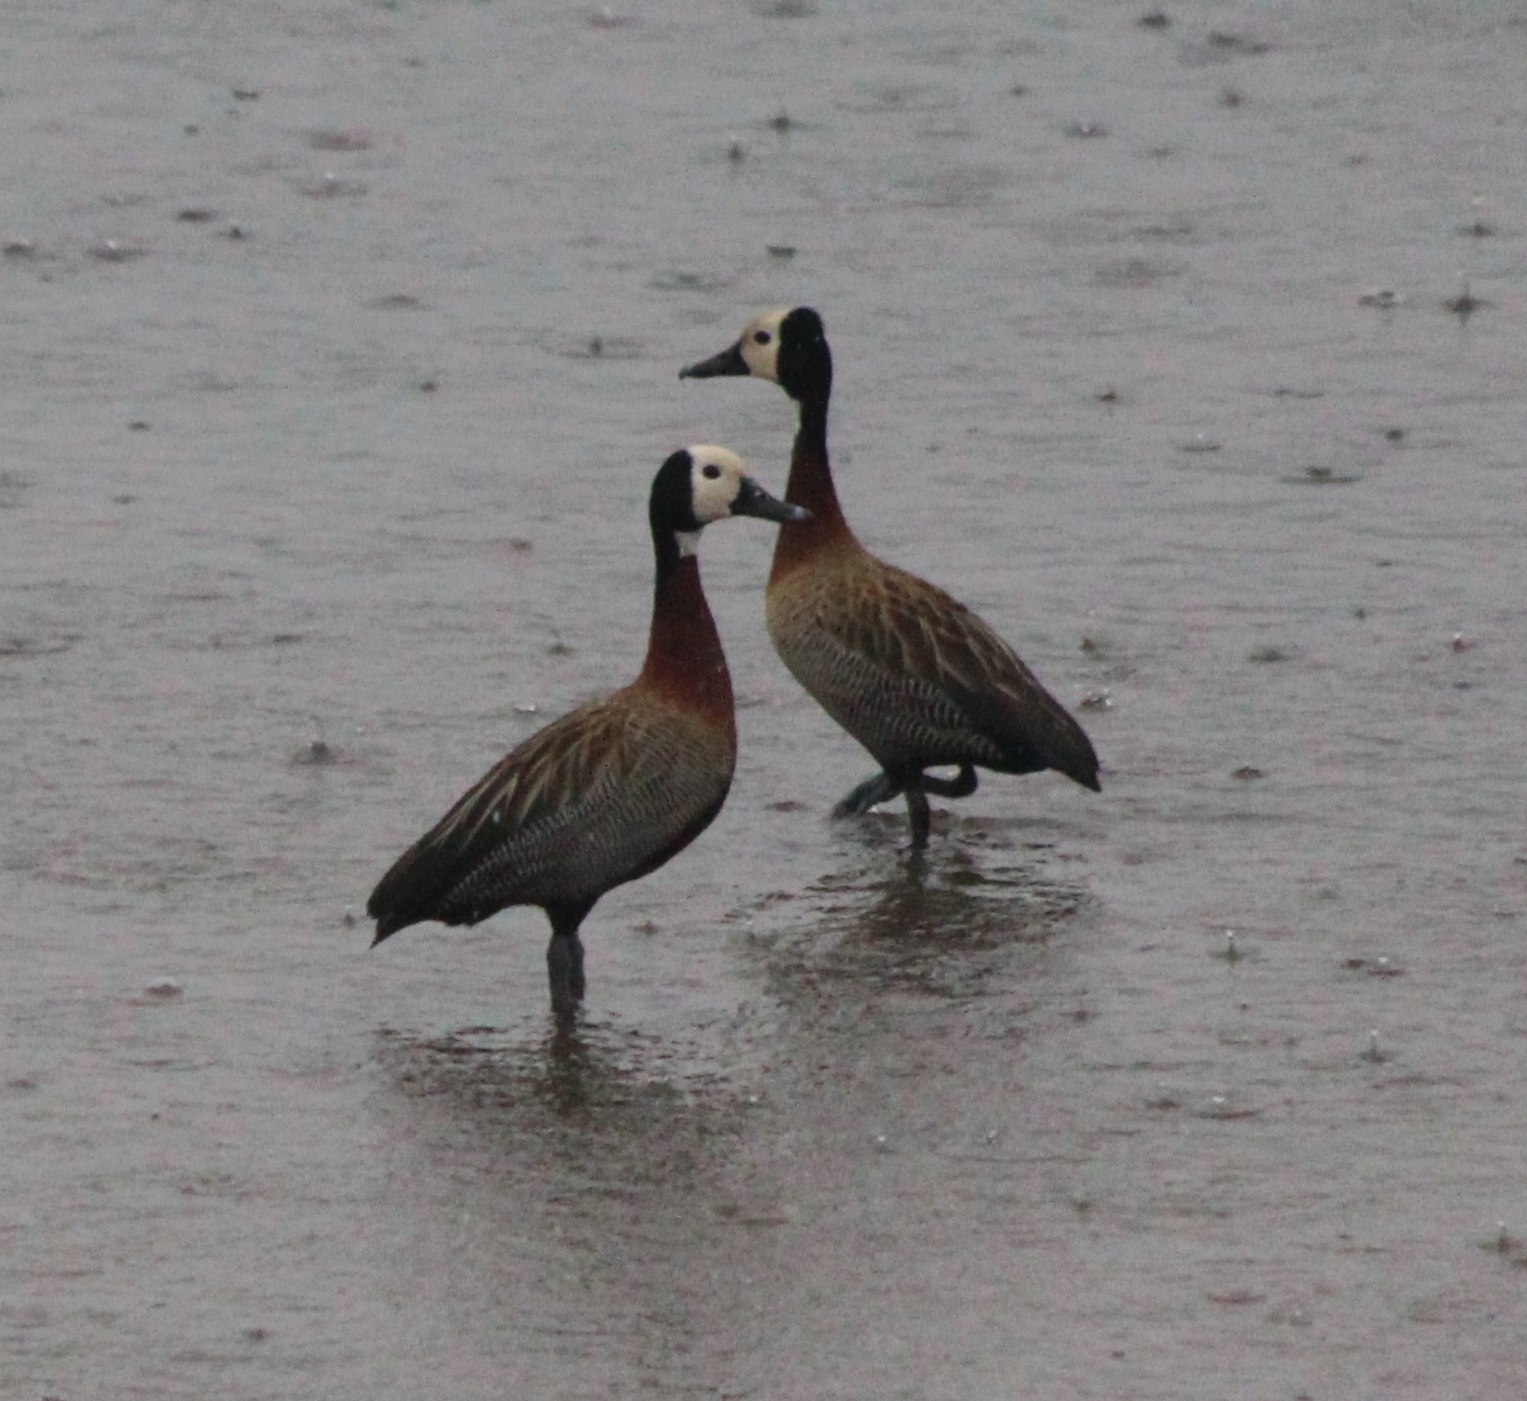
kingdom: Animalia
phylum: Chordata
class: Aves
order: Anseriformes
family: Anatidae
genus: Dendrocygna
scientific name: Dendrocygna viduata
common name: White-faced whistling duck
